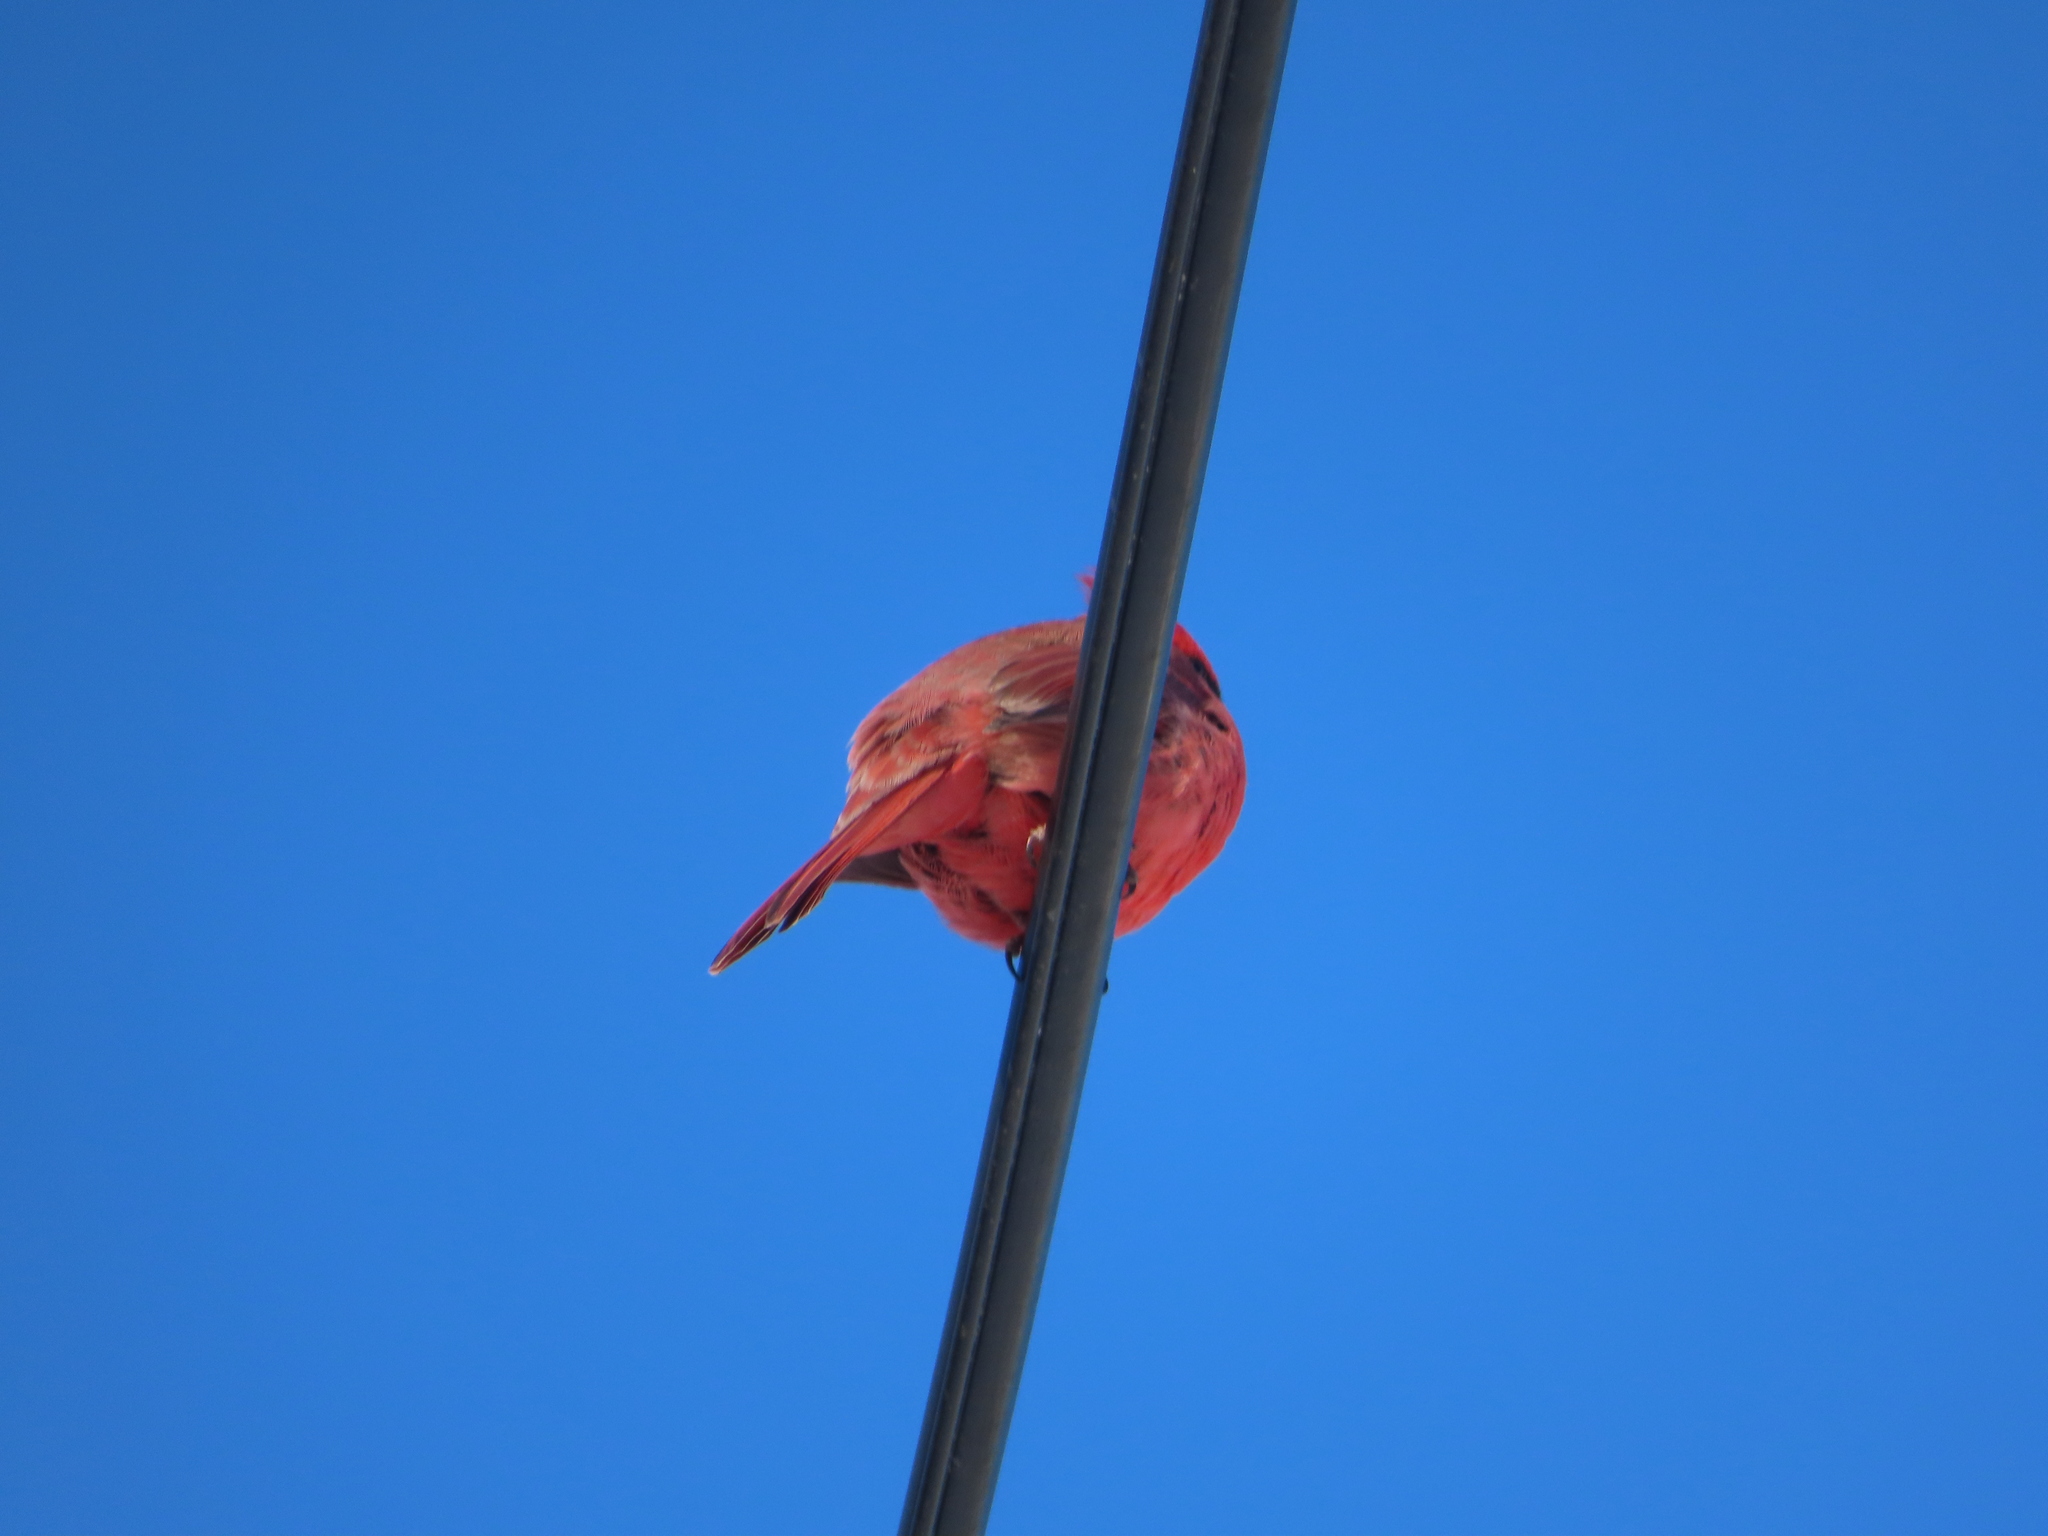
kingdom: Animalia
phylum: Chordata
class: Aves
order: Passeriformes
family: Cardinalidae
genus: Cardinalis
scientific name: Cardinalis cardinalis
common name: Northern cardinal
